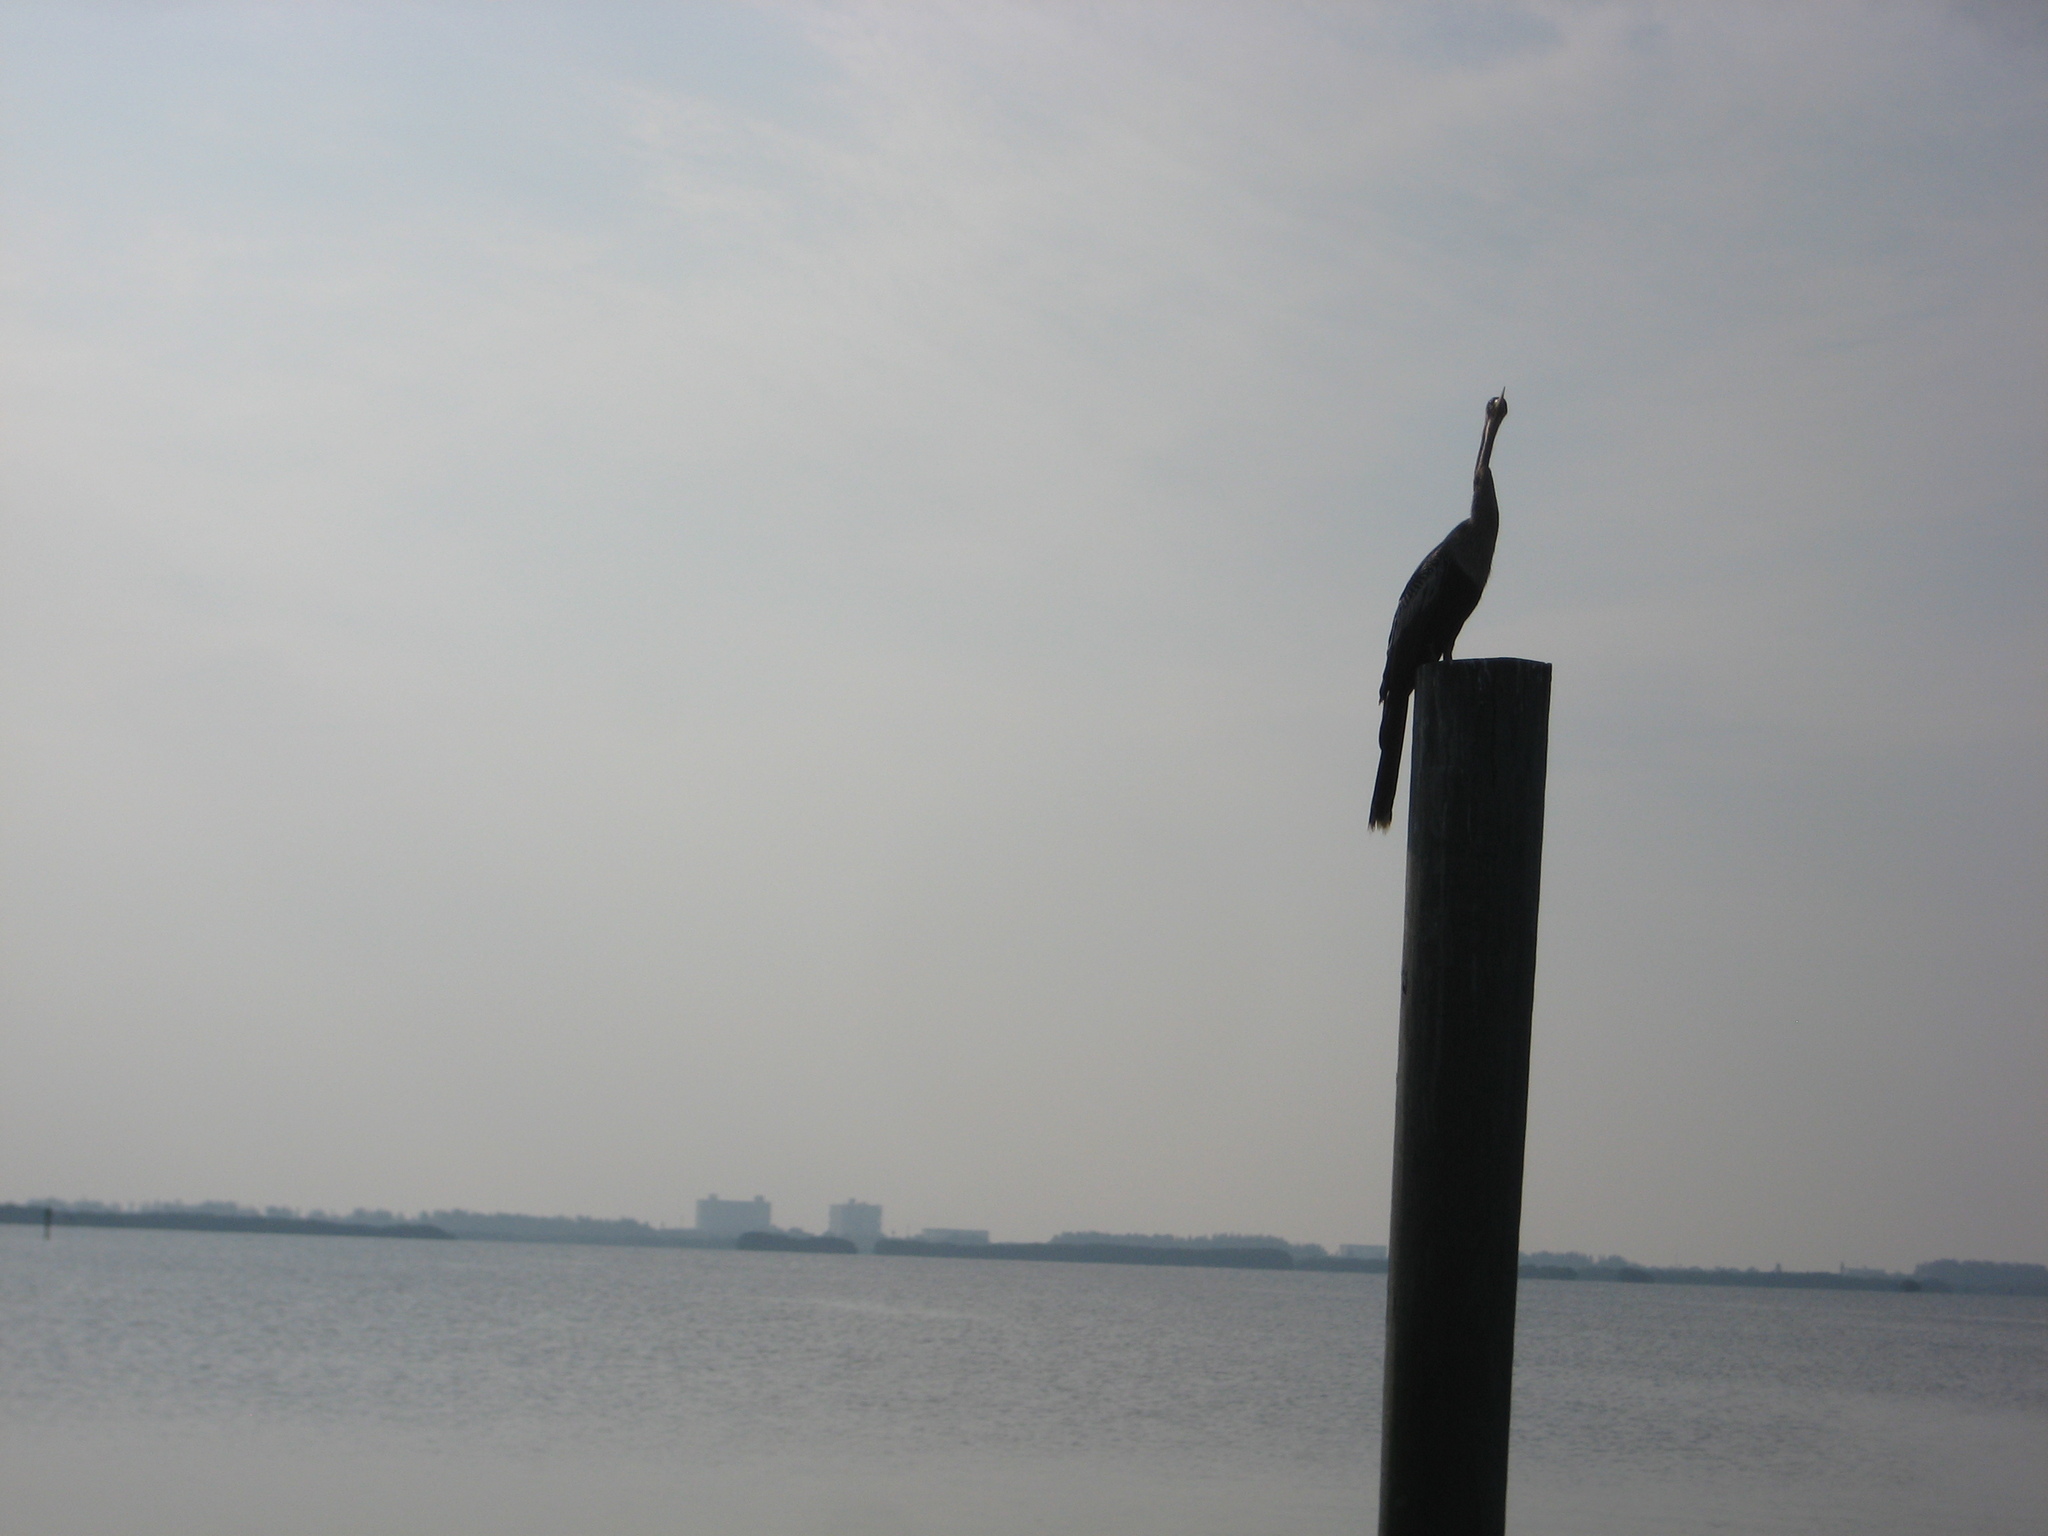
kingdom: Animalia
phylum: Chordata
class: Aves
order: Suliformes
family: Anhingidae
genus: Anhinga
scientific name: Anhinga anhinga
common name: Anhinga
